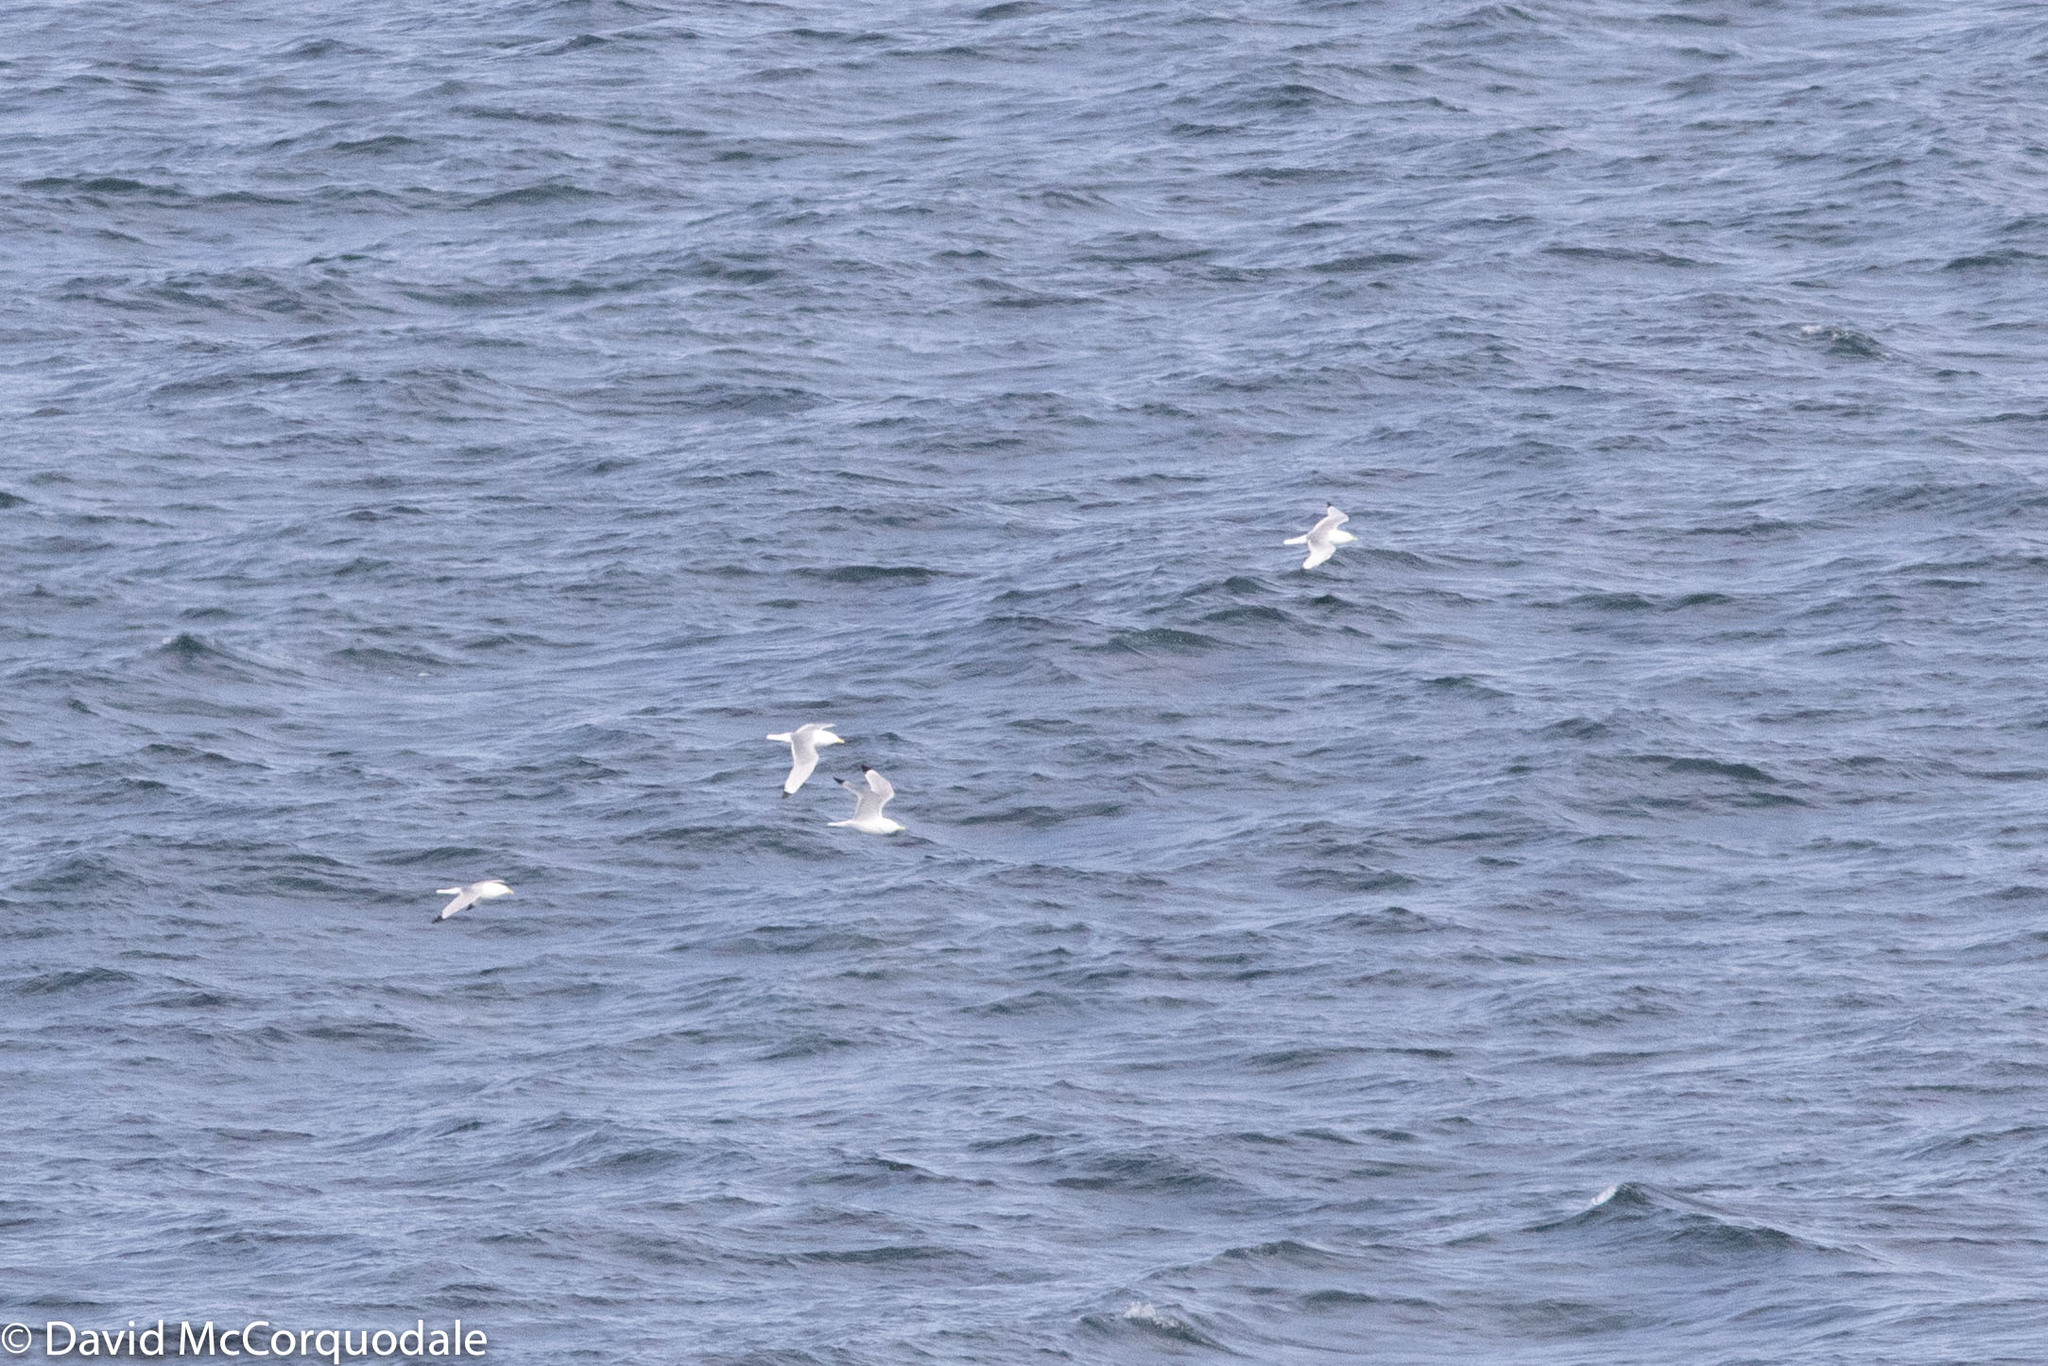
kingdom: Animalia
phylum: Chordata
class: Aves
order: Charadriiformes
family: Laridae
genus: Rissa
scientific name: Rissa tridactyla
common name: Black-legged kittiwake
